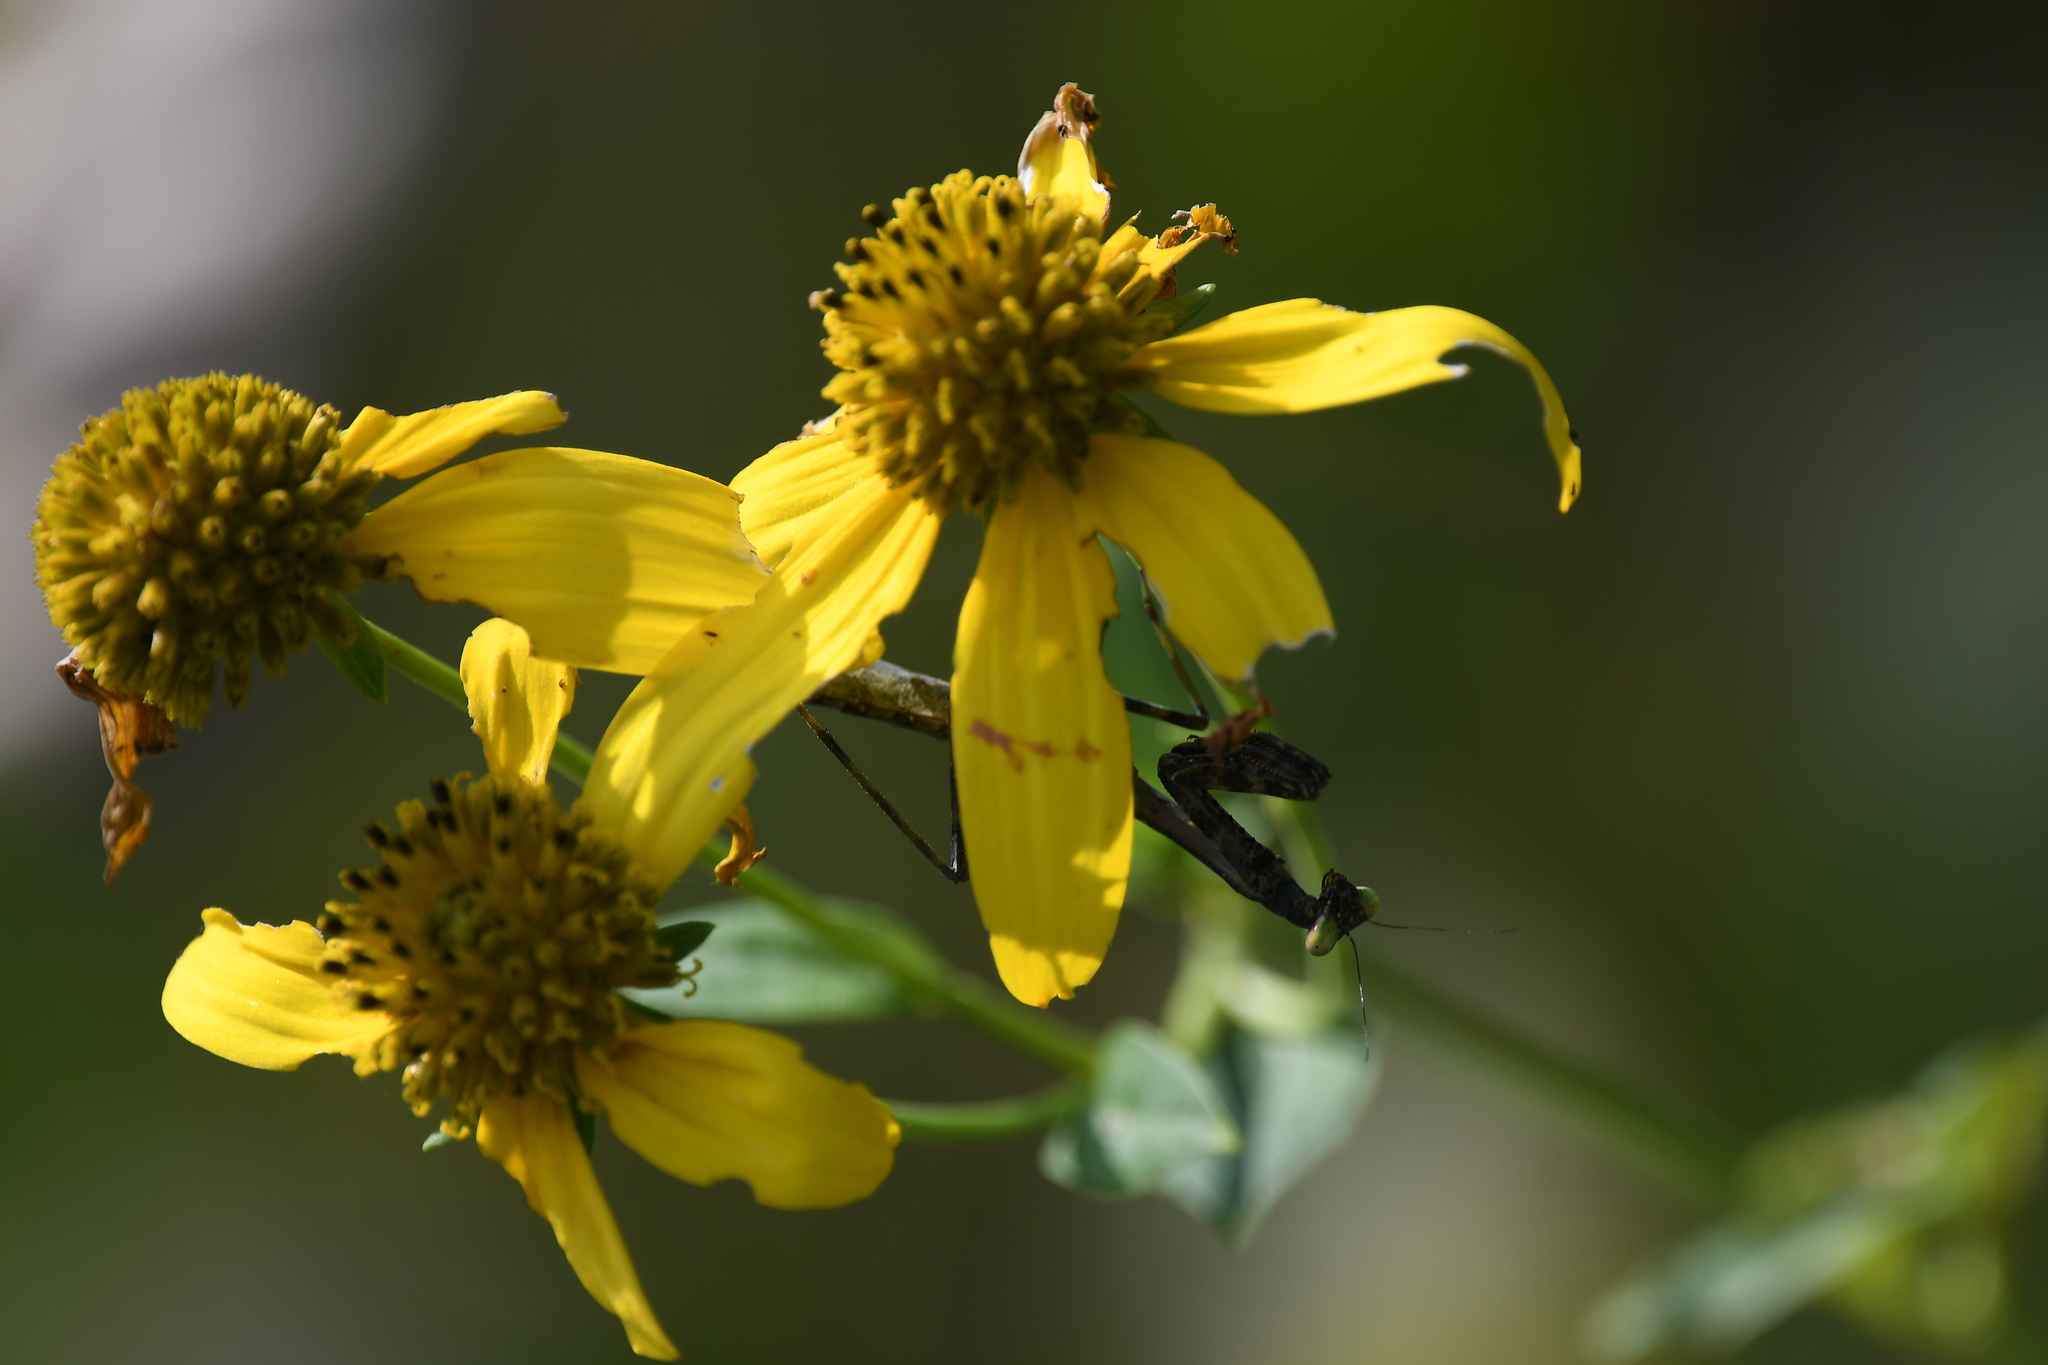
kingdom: Animalia
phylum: Arthropoda
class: Insecta
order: Mantodea
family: Mantidae
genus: Stagmomantis
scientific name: Stagmomantis carolina
